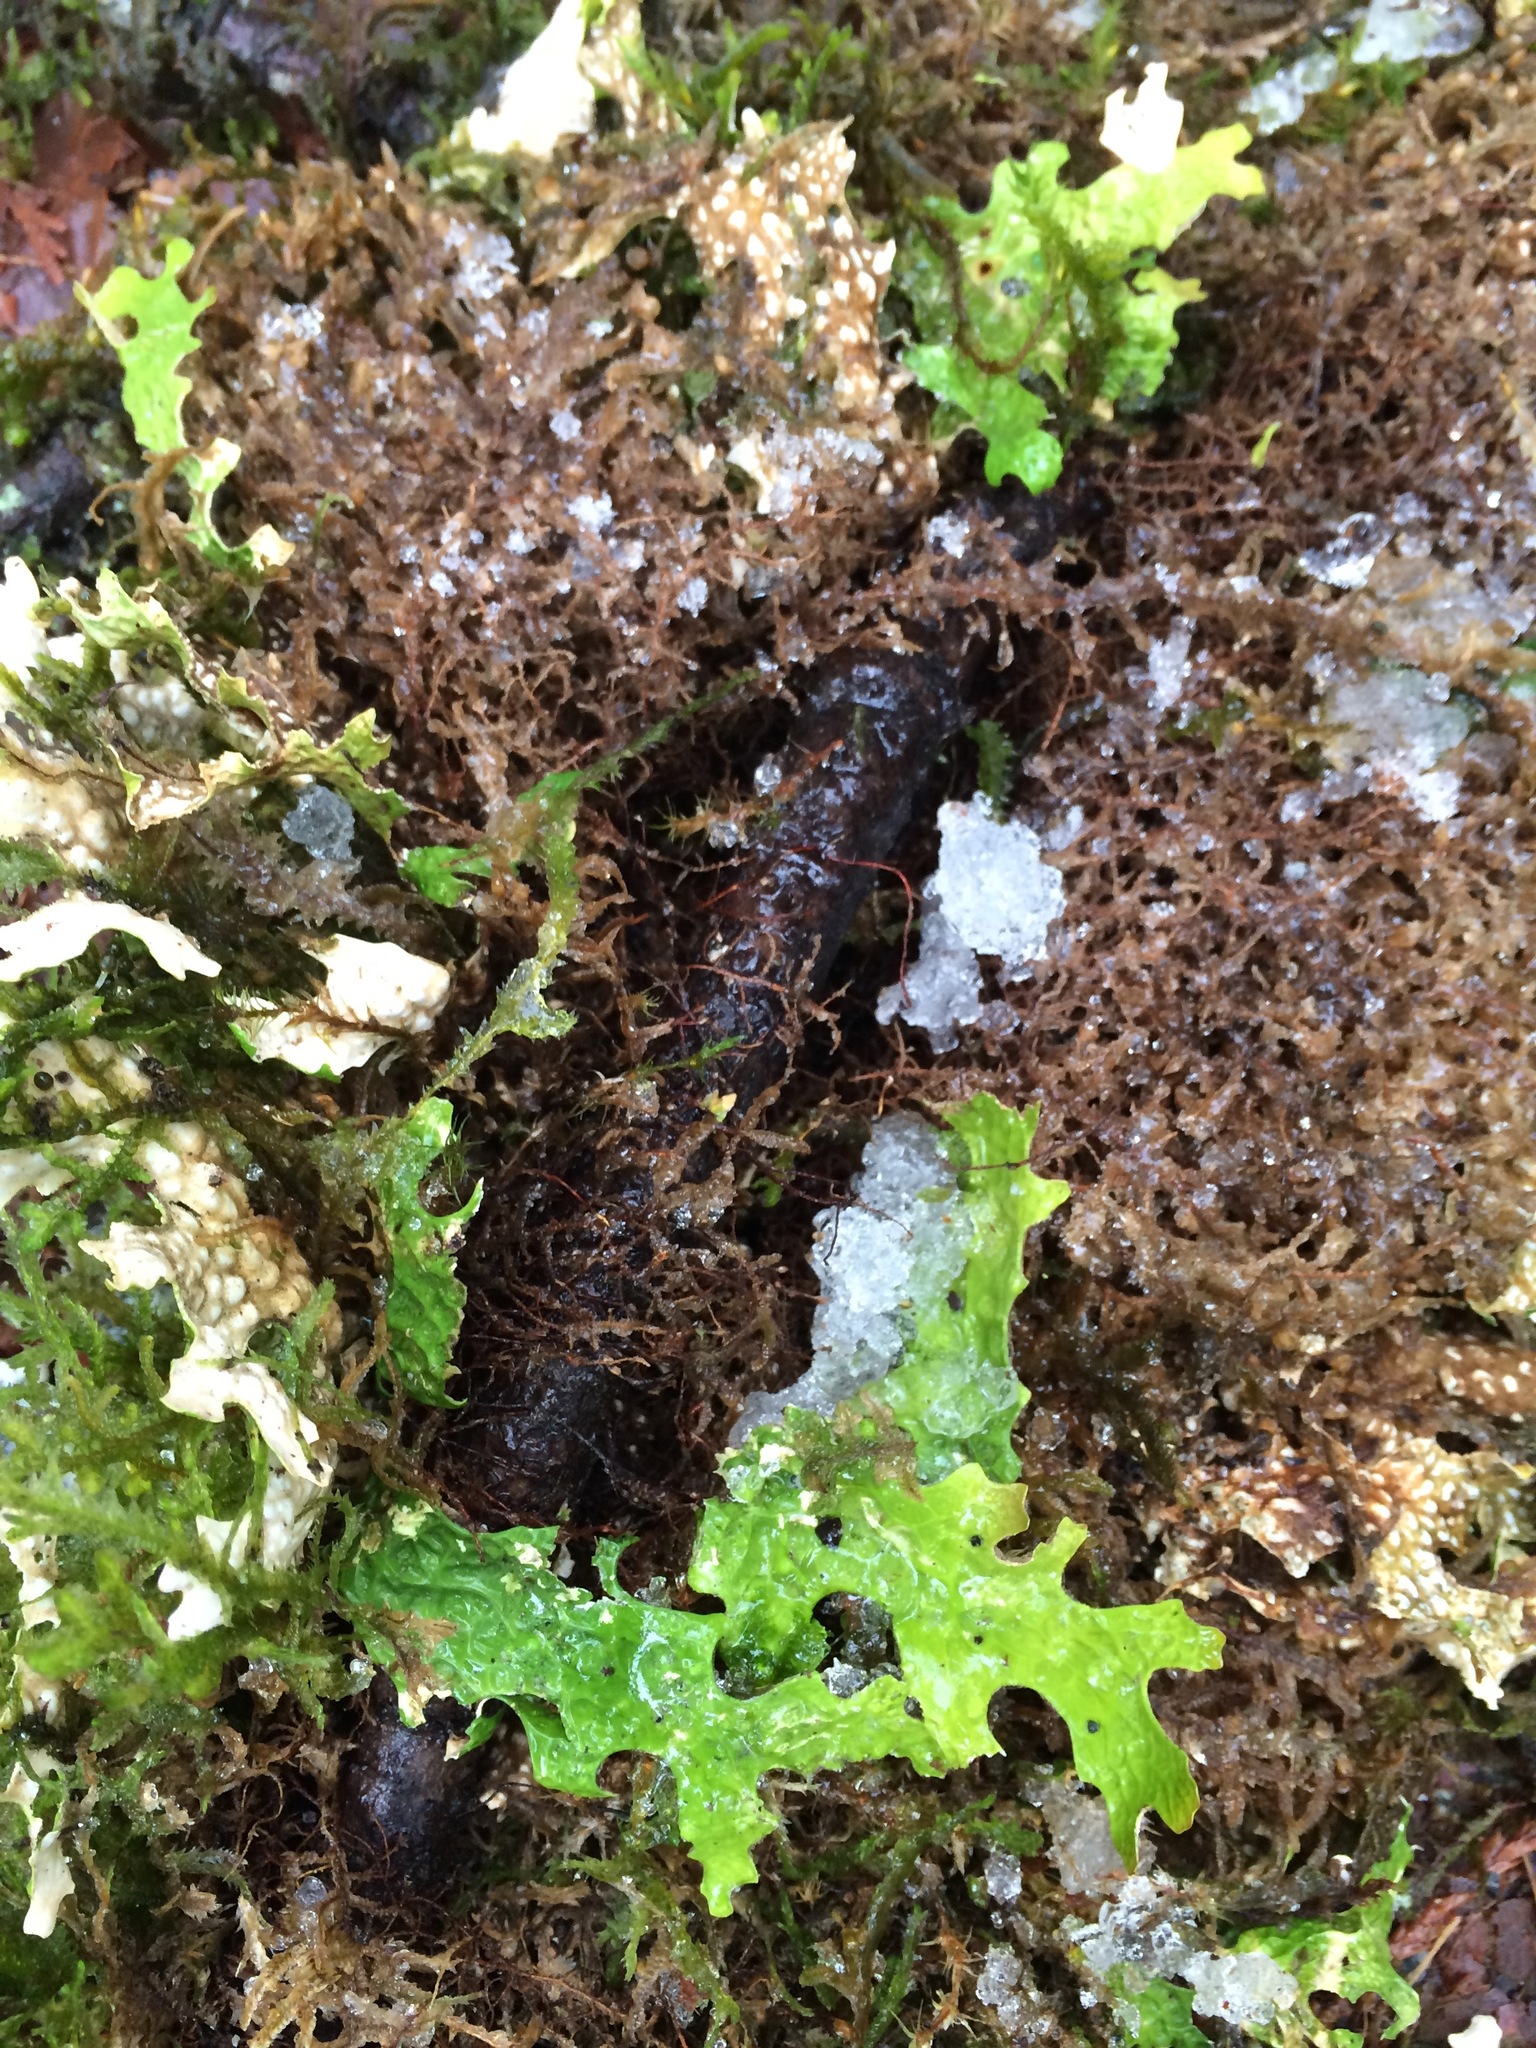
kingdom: Fungi
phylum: Ascomycota
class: Lecanoromycetes
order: Peltigerales
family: Lobariaceae
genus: Lobaria
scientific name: Lobaria pulmonaria
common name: Lungwort
